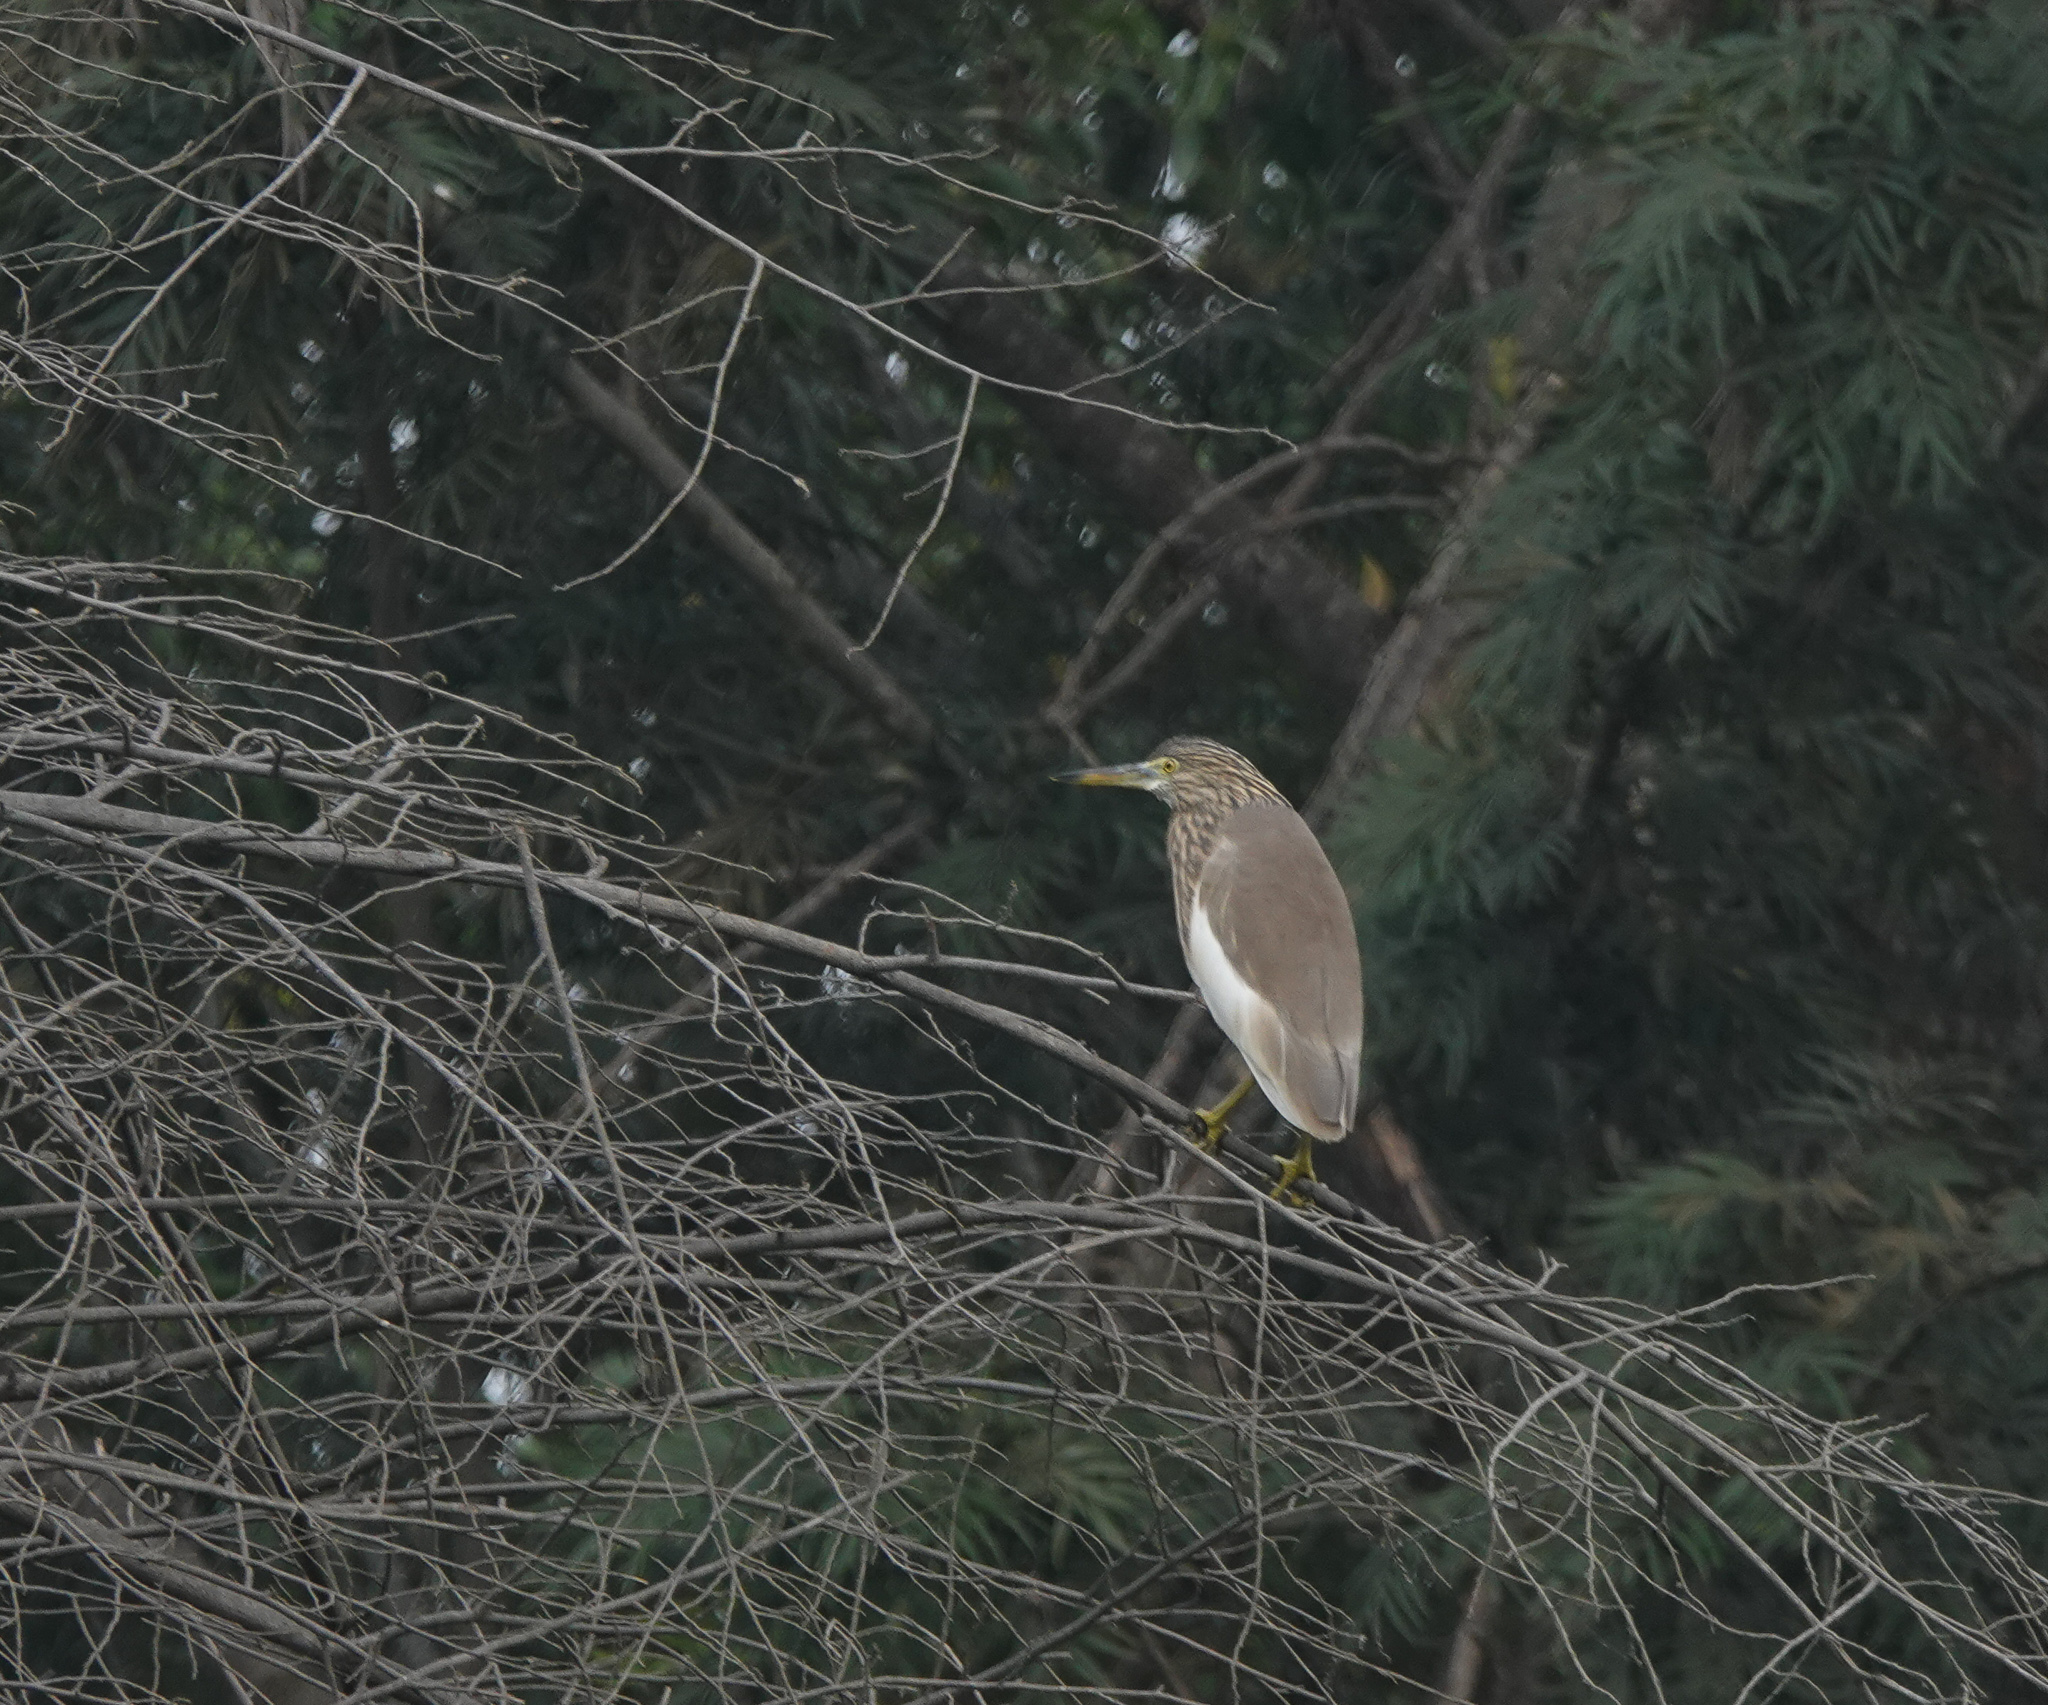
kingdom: Animalia
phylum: Chordata
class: Aves
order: Pelecaniformes
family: Ardeidae
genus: Ardeola
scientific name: Ardeola grayii
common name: Indian pond heron
